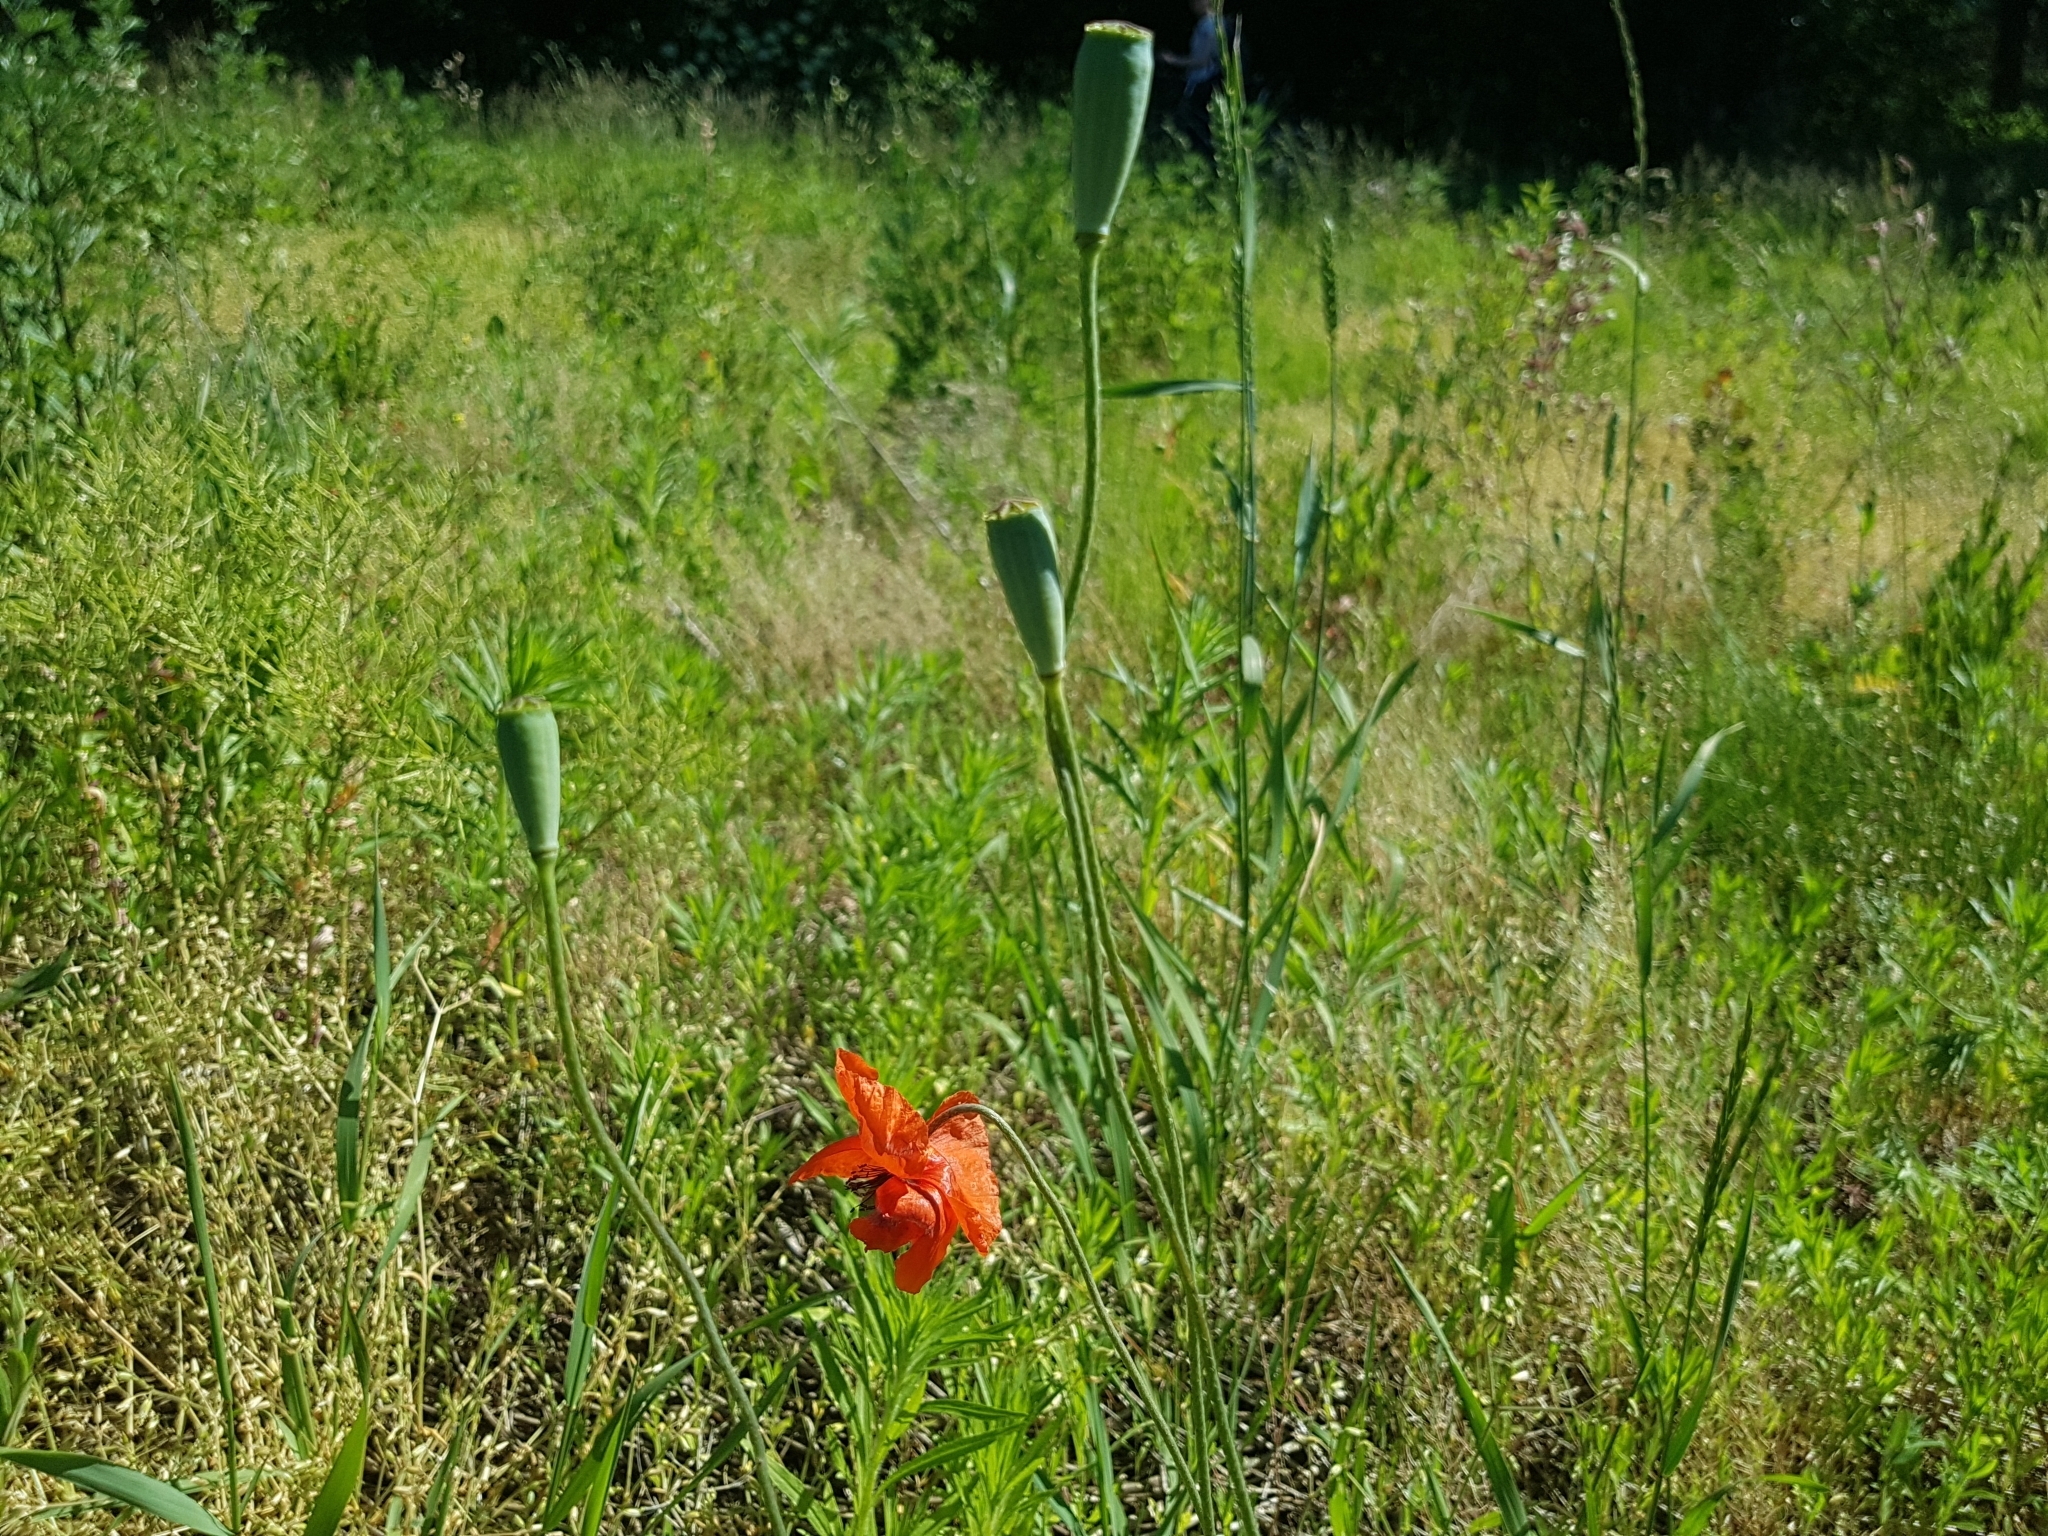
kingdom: Plantae
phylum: Tracheophyta
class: Magnoliopsida
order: Ranunculales
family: Papaveraceae
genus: Papaver
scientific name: Papaver dubium
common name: Long-headed poppy
